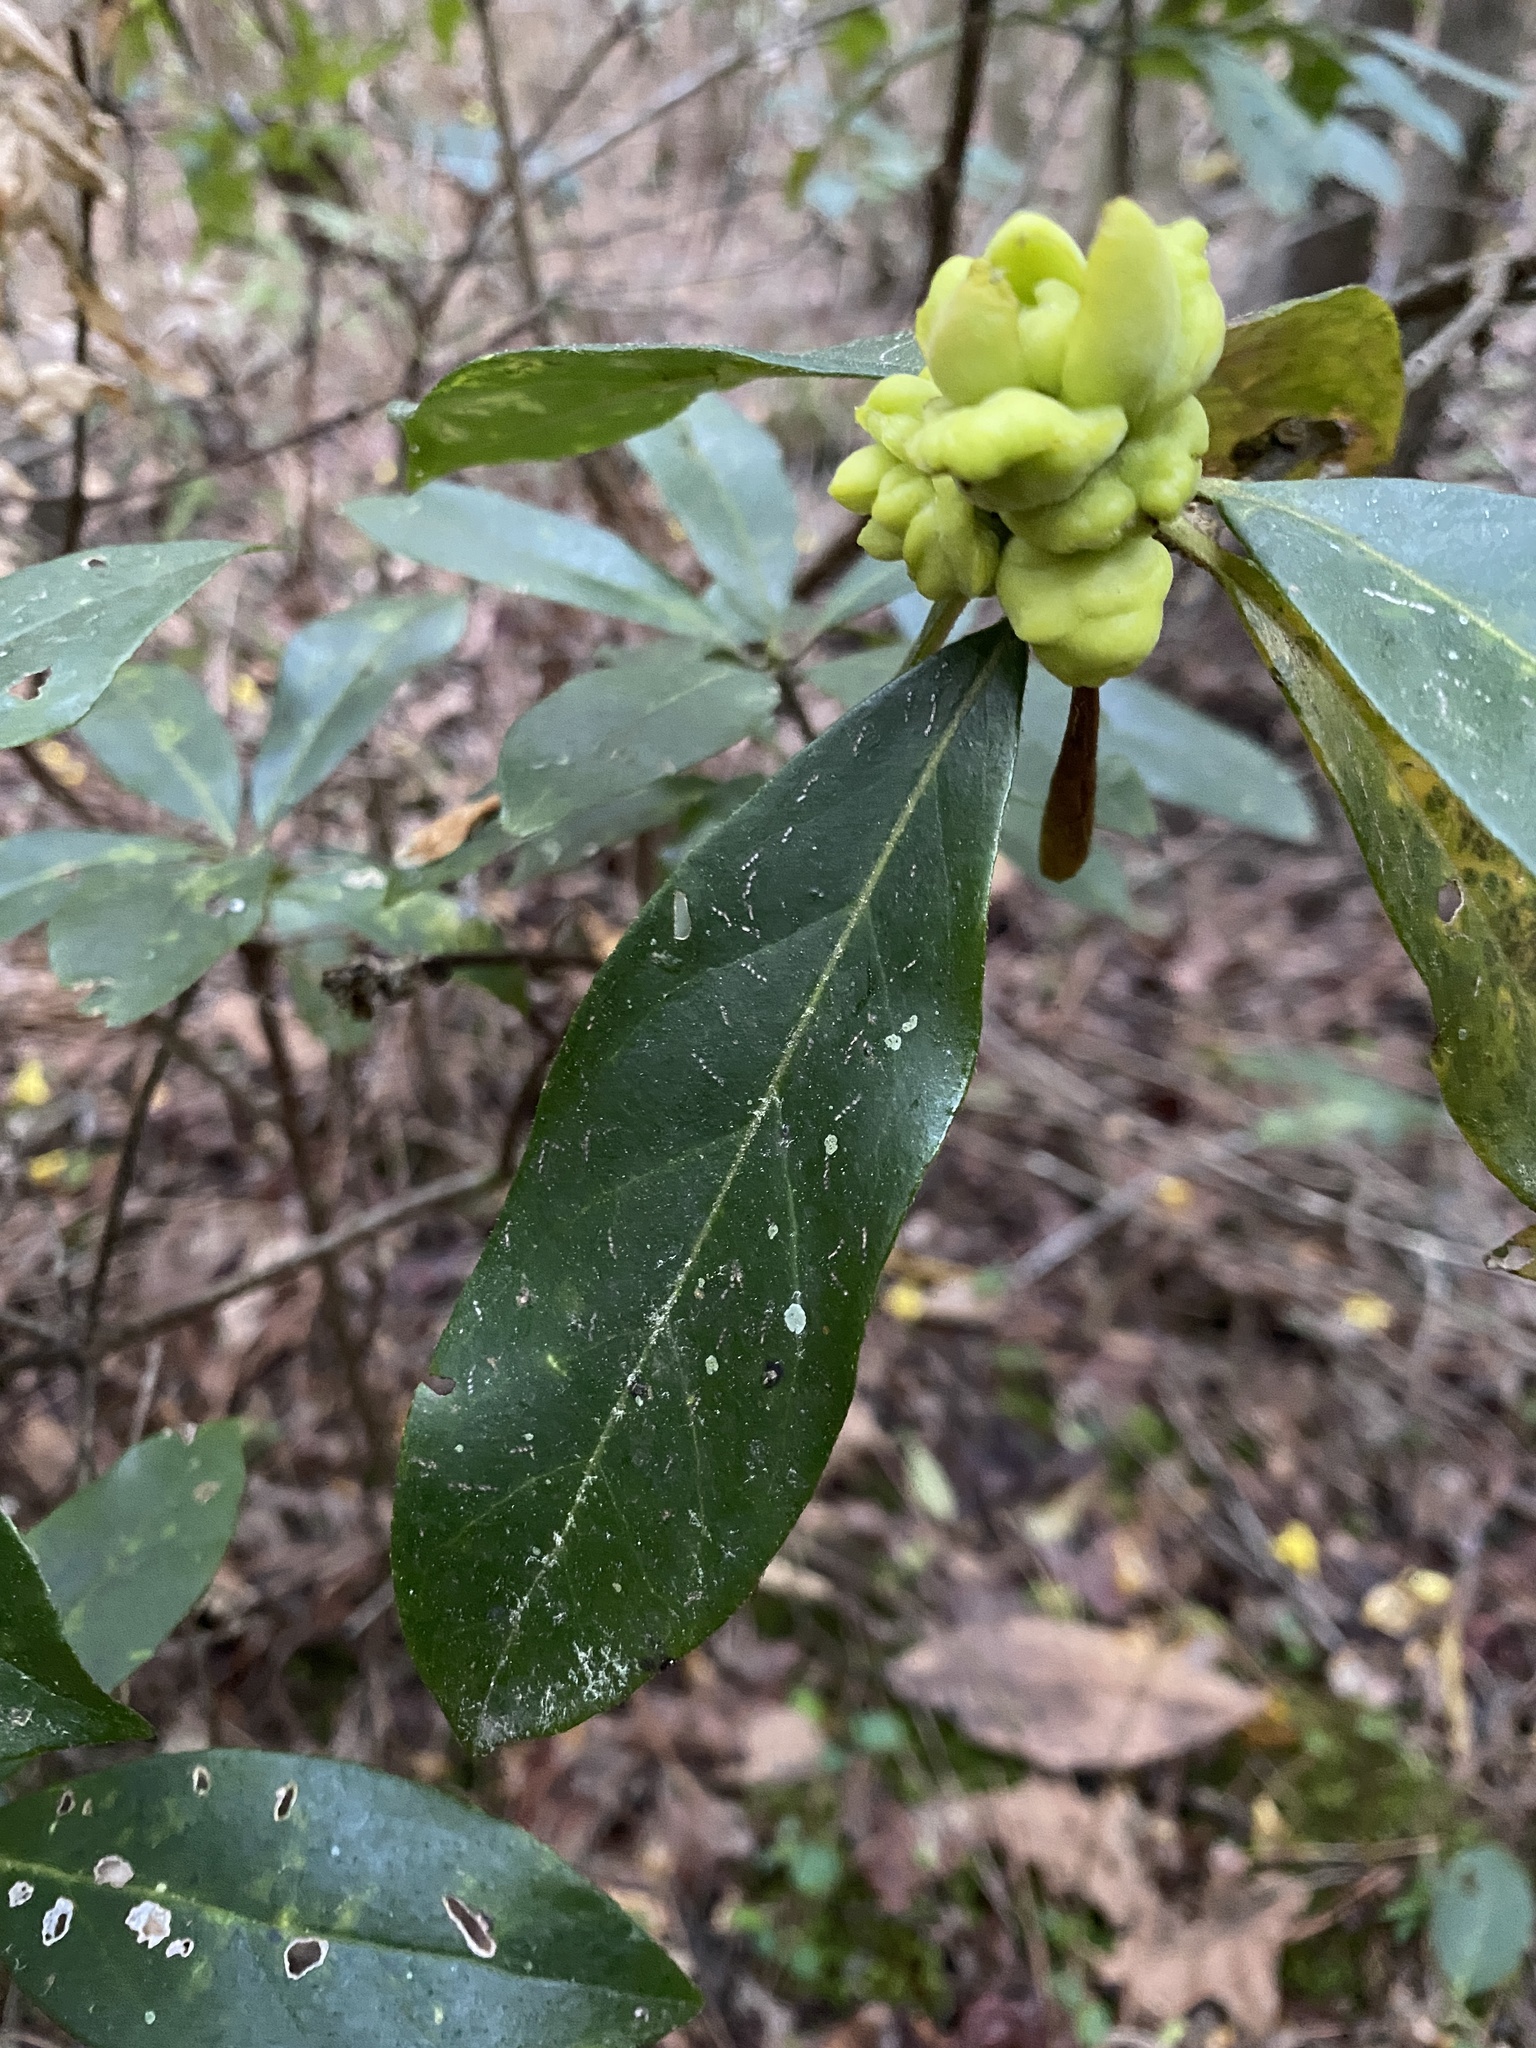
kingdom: Fungi
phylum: Basidiomycota
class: Exobasidiomycetes
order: Exobasidiales
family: Exobasidiaceae
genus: Exobasidium
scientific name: Exobasidium symploci
